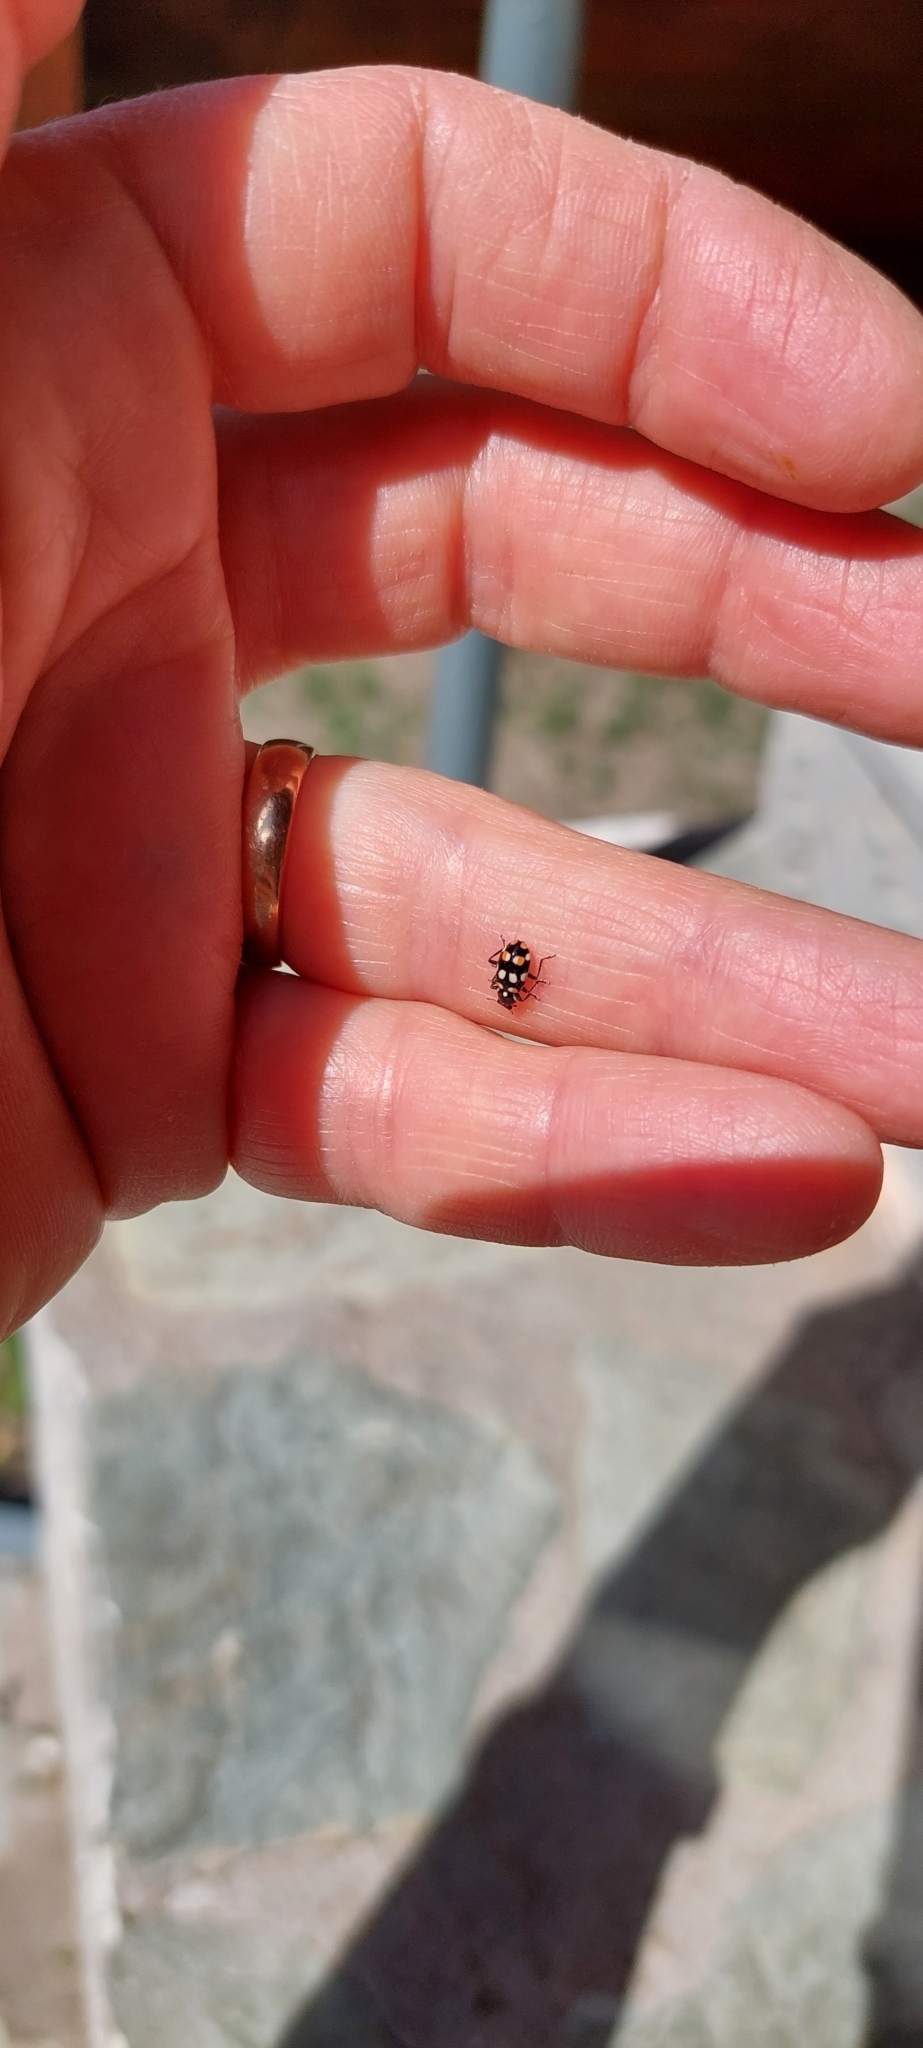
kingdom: Animalia
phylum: Arthropoda
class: Insecta
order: Coleoptera
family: Coccinellidae
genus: Eriopis
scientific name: Eriopis connexa
